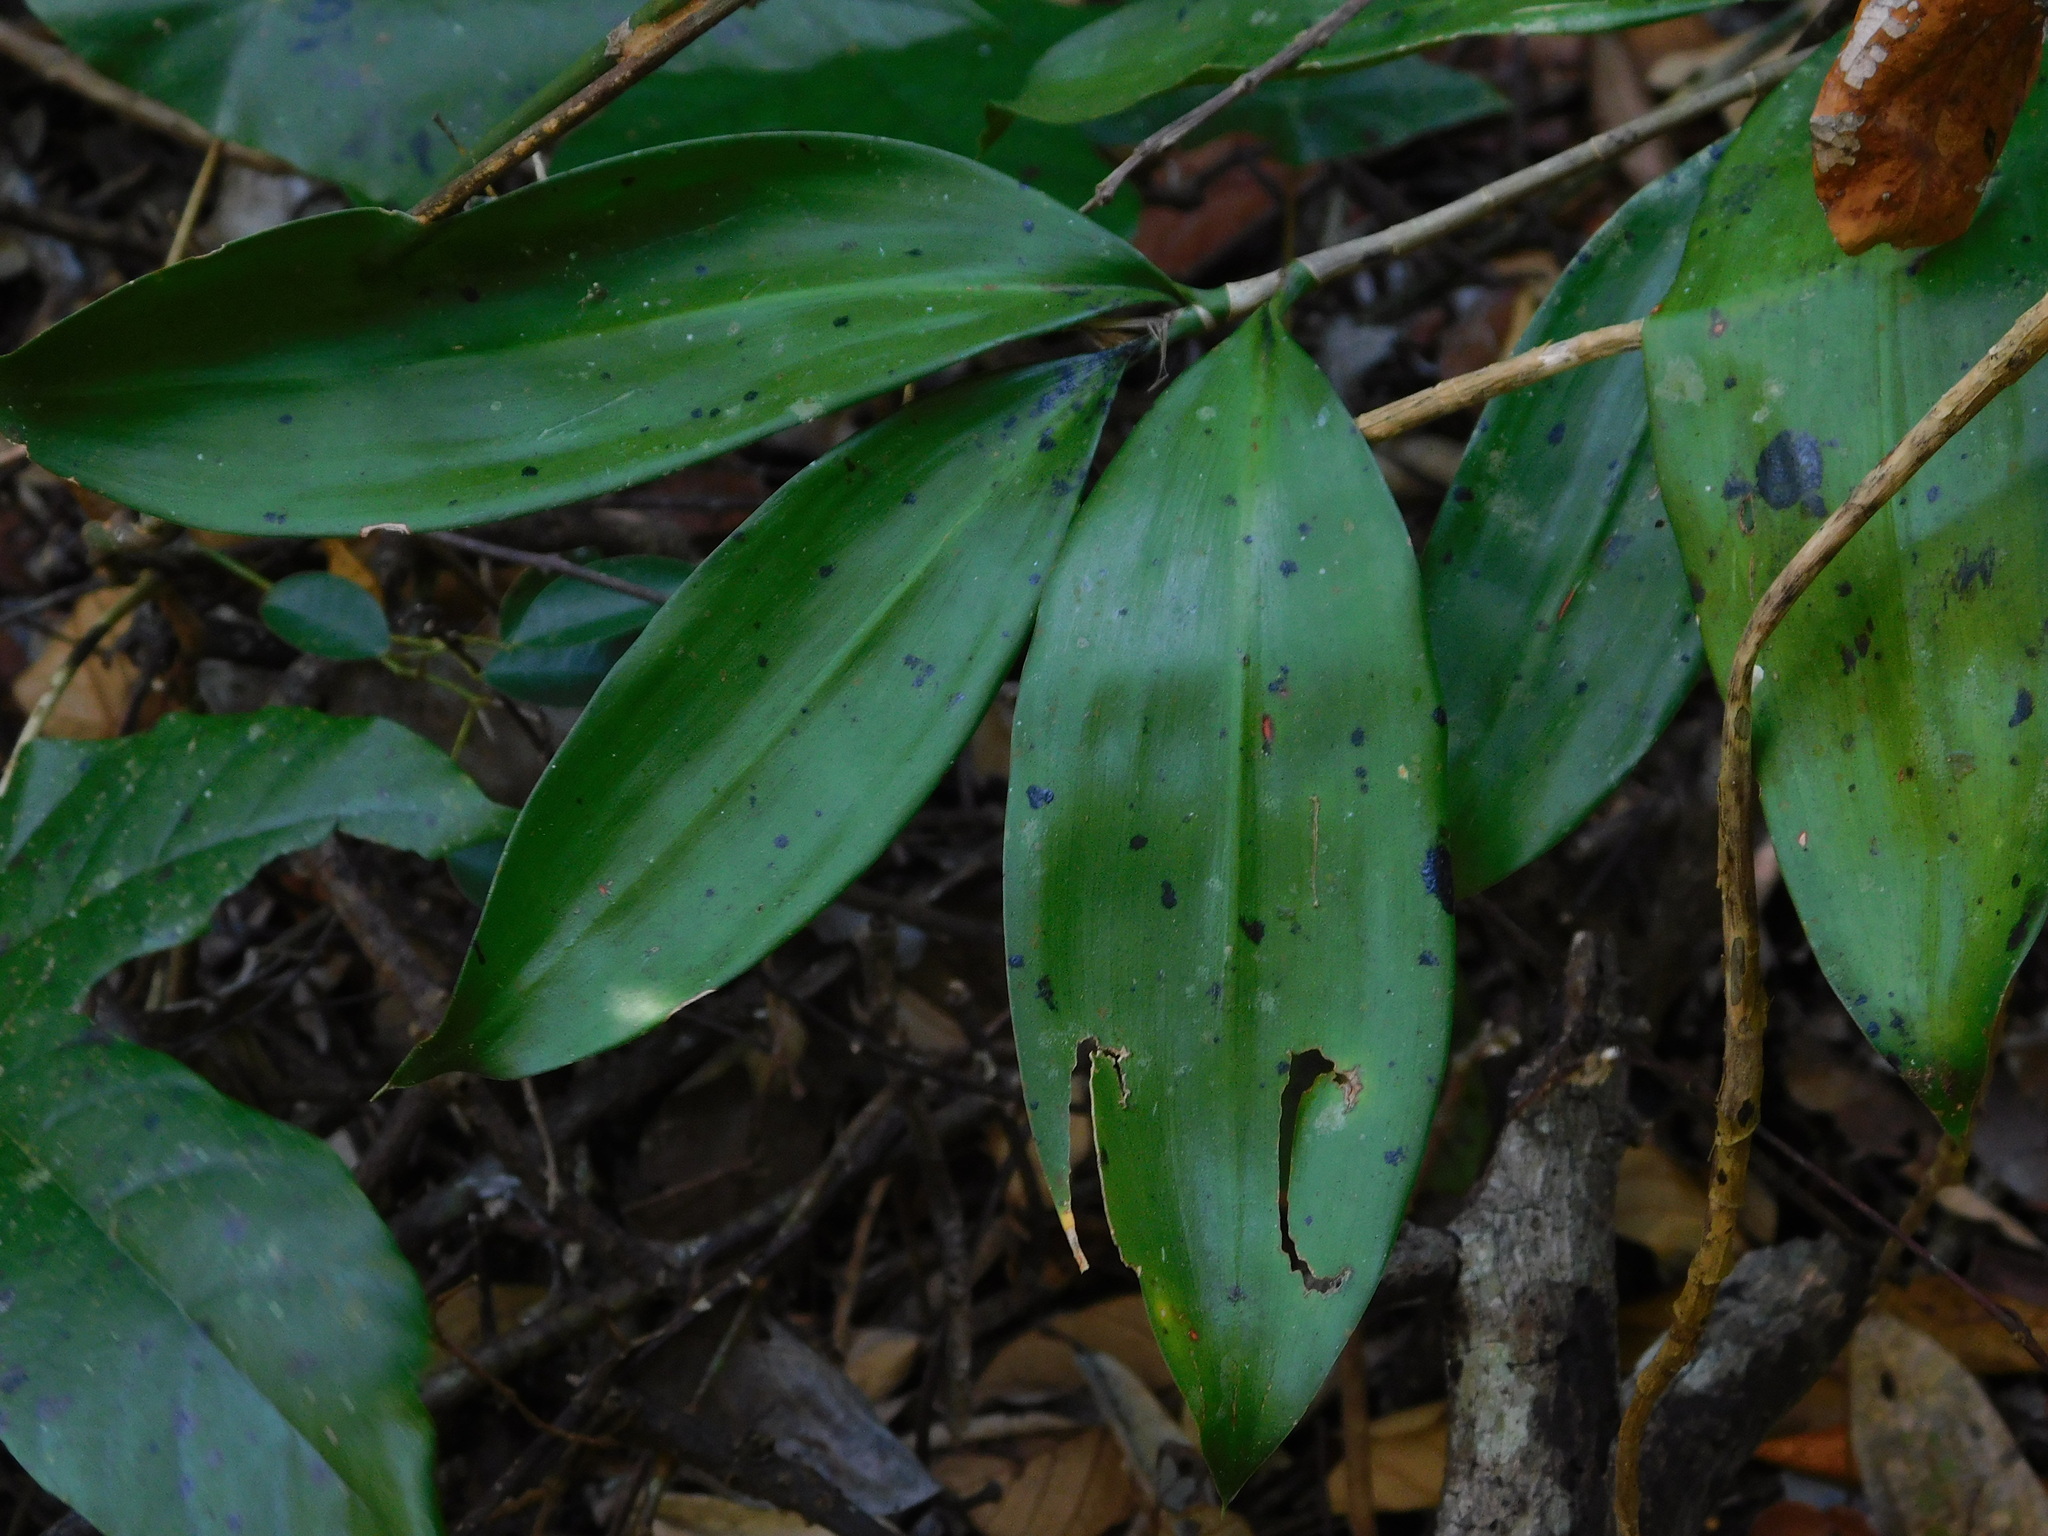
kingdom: Plantae
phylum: Tracheophyta
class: Liliopsida
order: Asparagales
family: Asparagaceae
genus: Dracaena
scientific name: Dracaena elliptica
